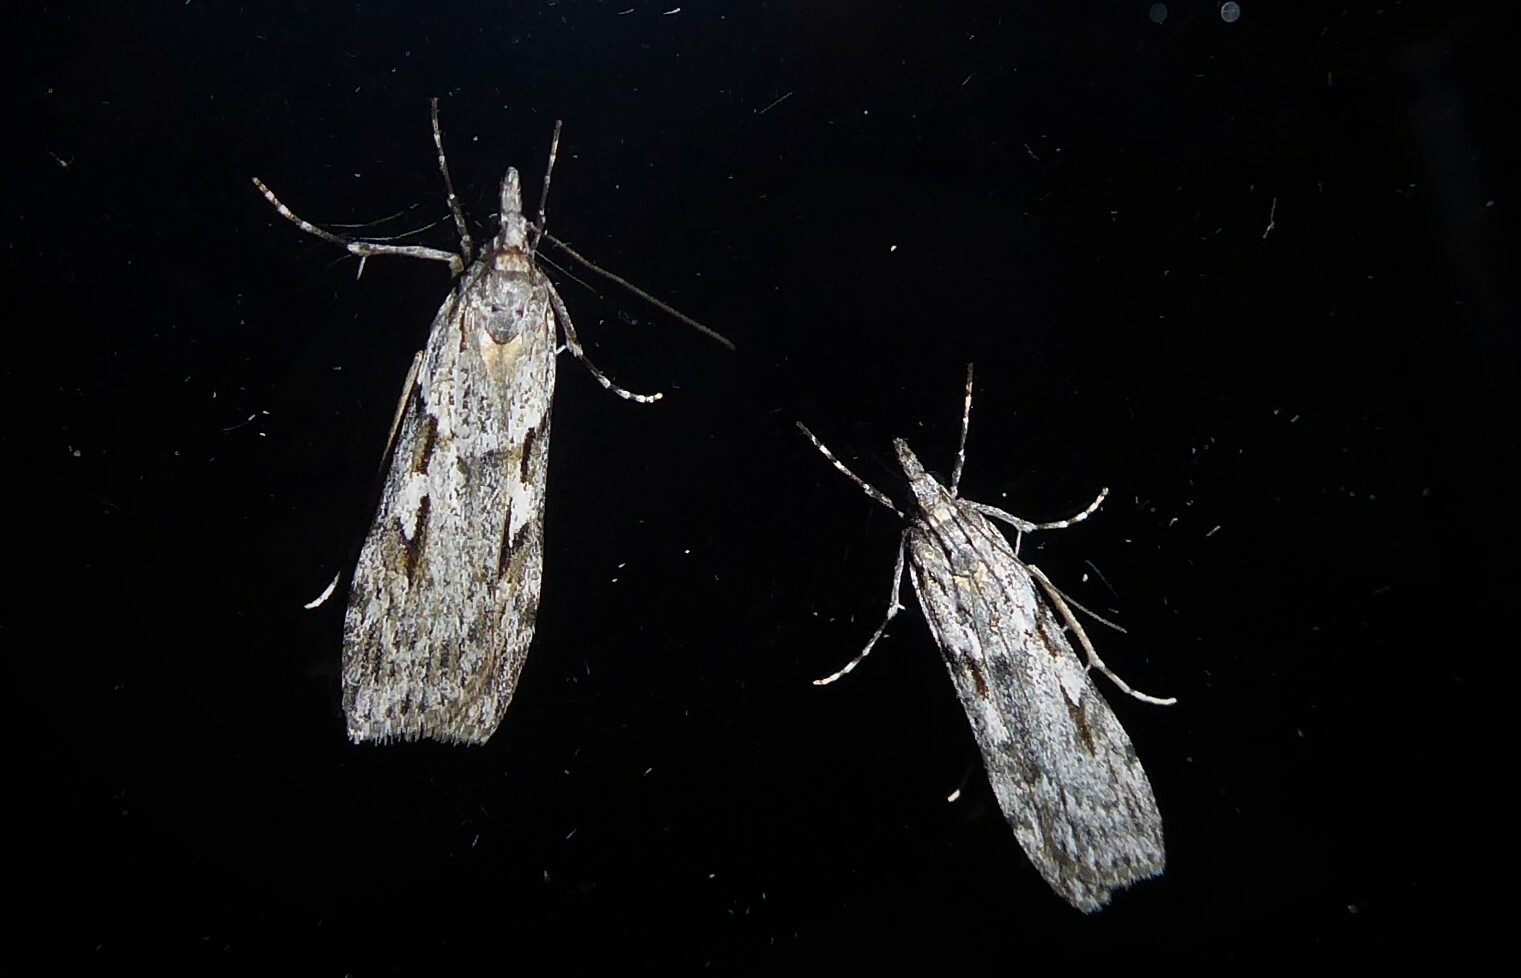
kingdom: Animalia
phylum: Arthropoda
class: Insecta
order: Lepidoptera
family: Crambidae
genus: Scoparia
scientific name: Scoparia halopis
